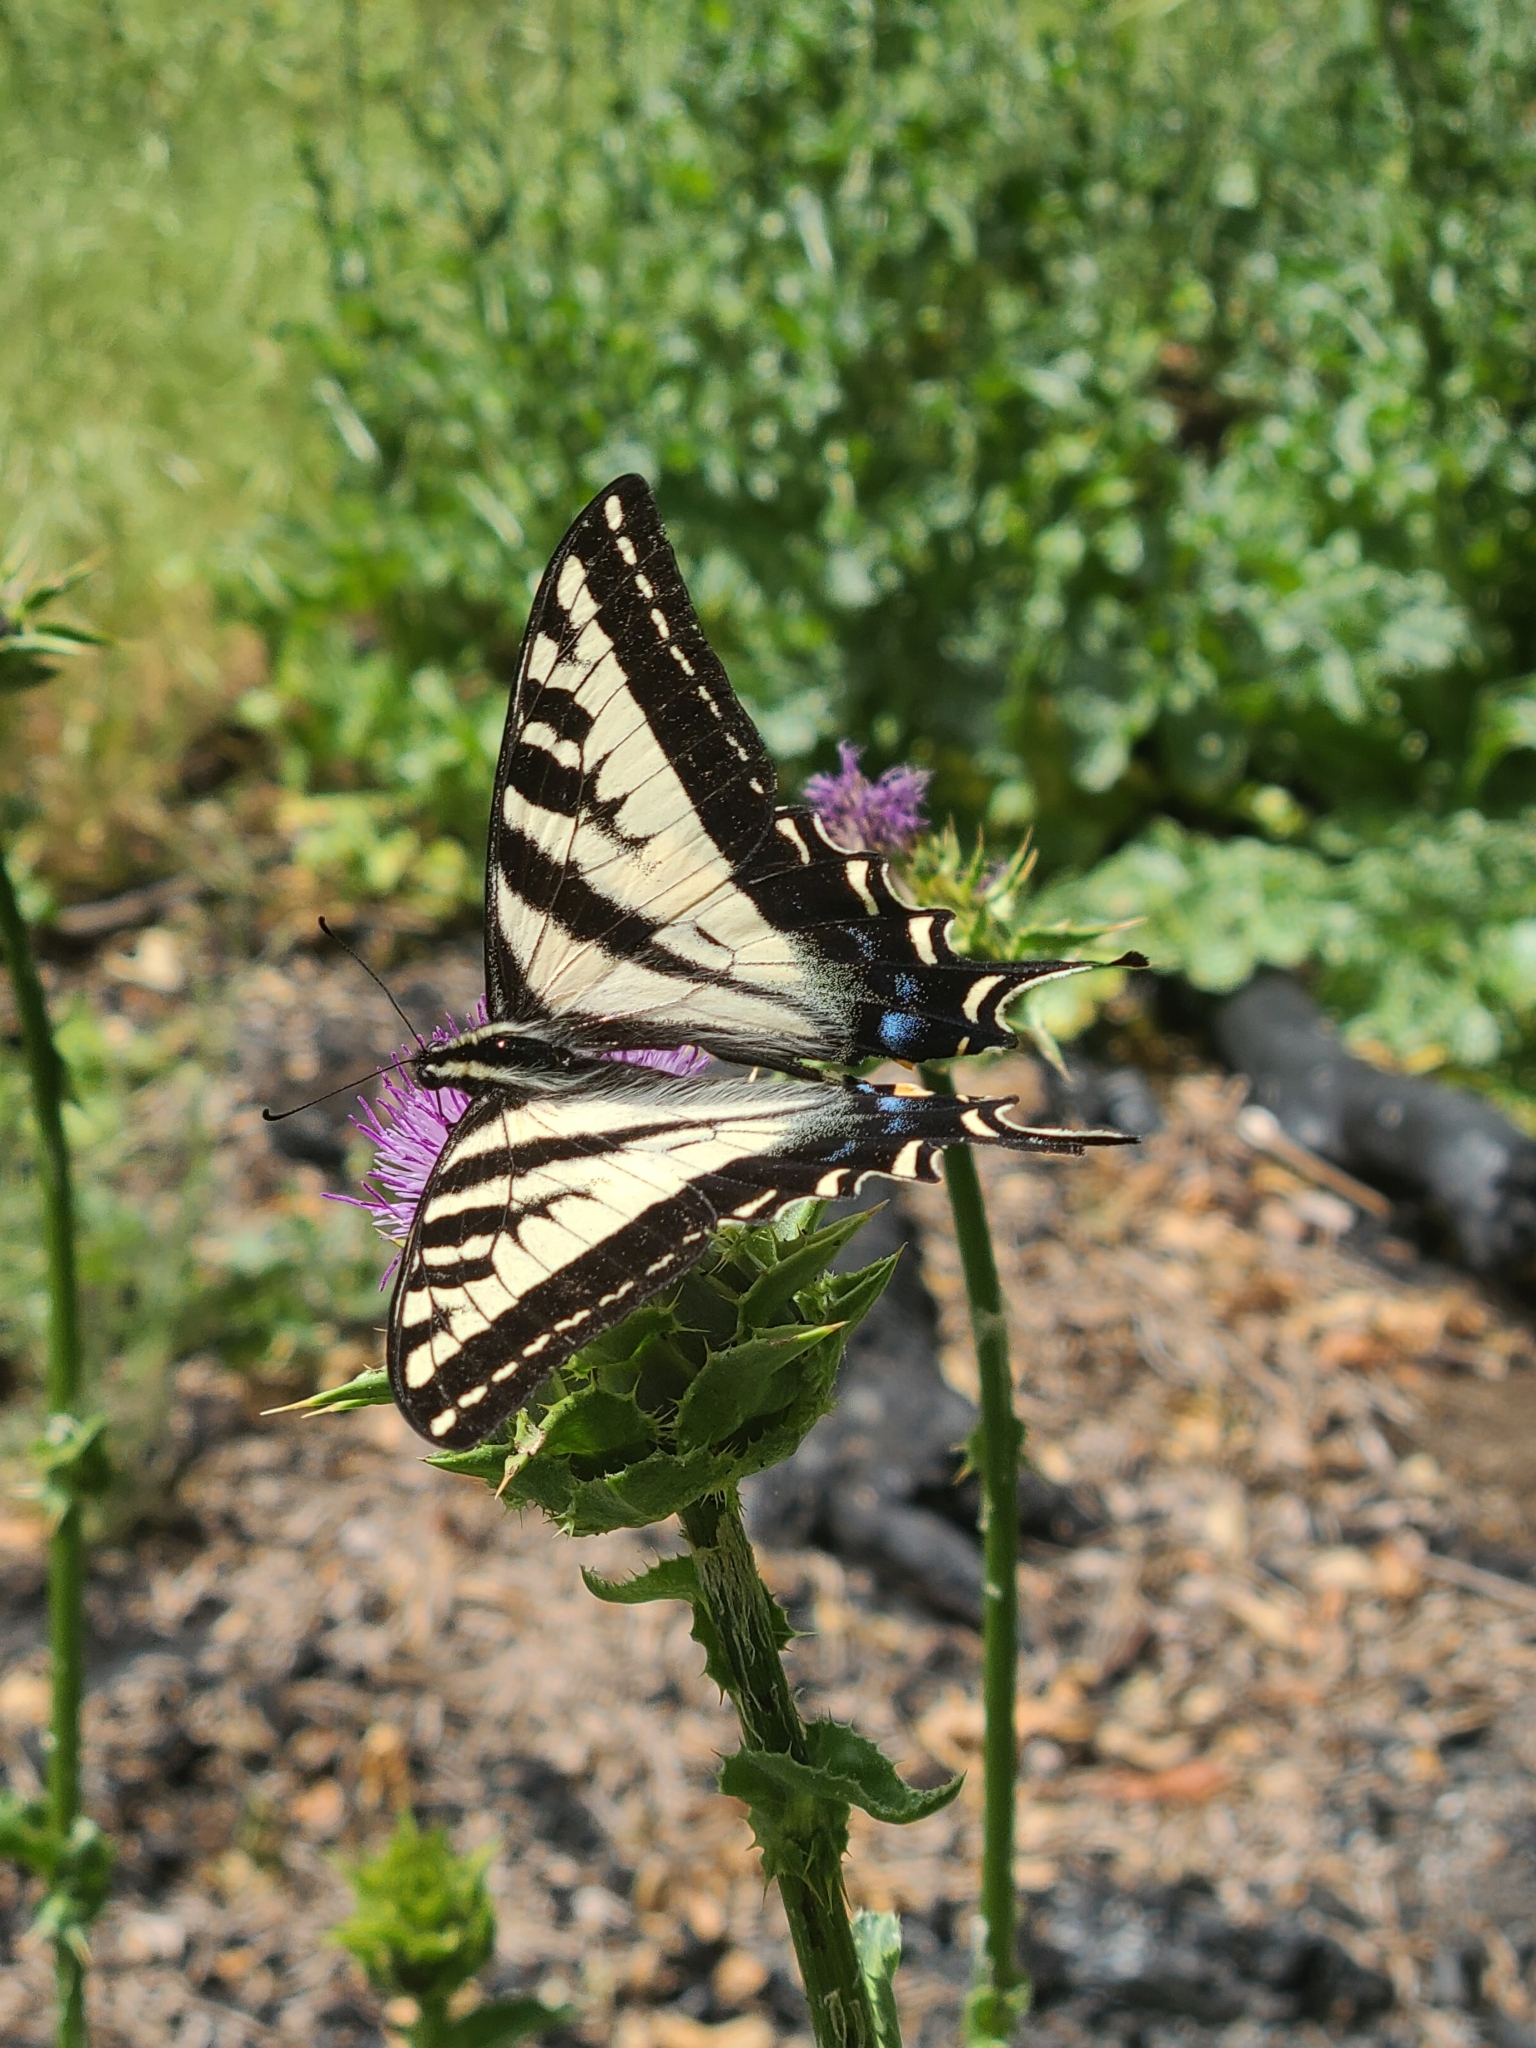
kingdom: Animalia
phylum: Arthropoda
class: Insecta
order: Lepidoptera
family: Papilionidae
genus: Papilio
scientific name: Papilio eurymedon
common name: Pale tiger swallowtail
